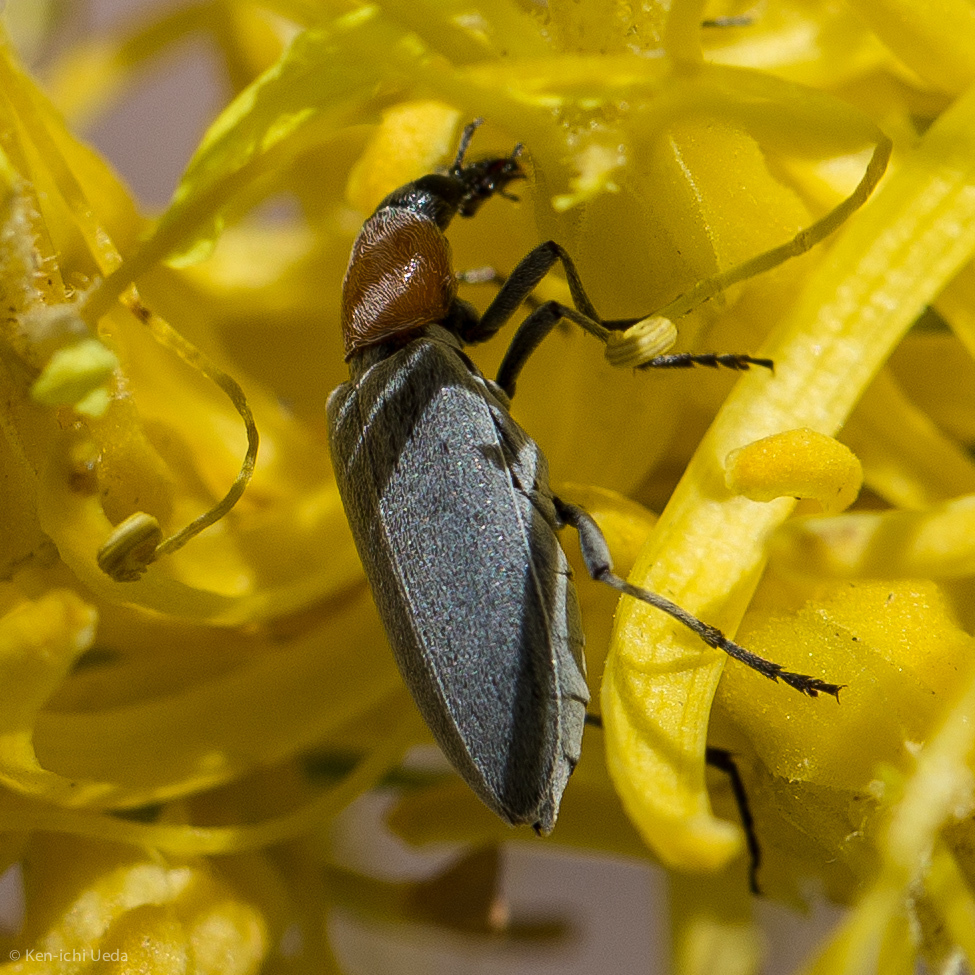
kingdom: Animalia
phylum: Arthropoda
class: Insecta
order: Coleoptera
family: Oedemeridae
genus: Rhinoplatia
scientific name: Rhinoplatia ruficollis
